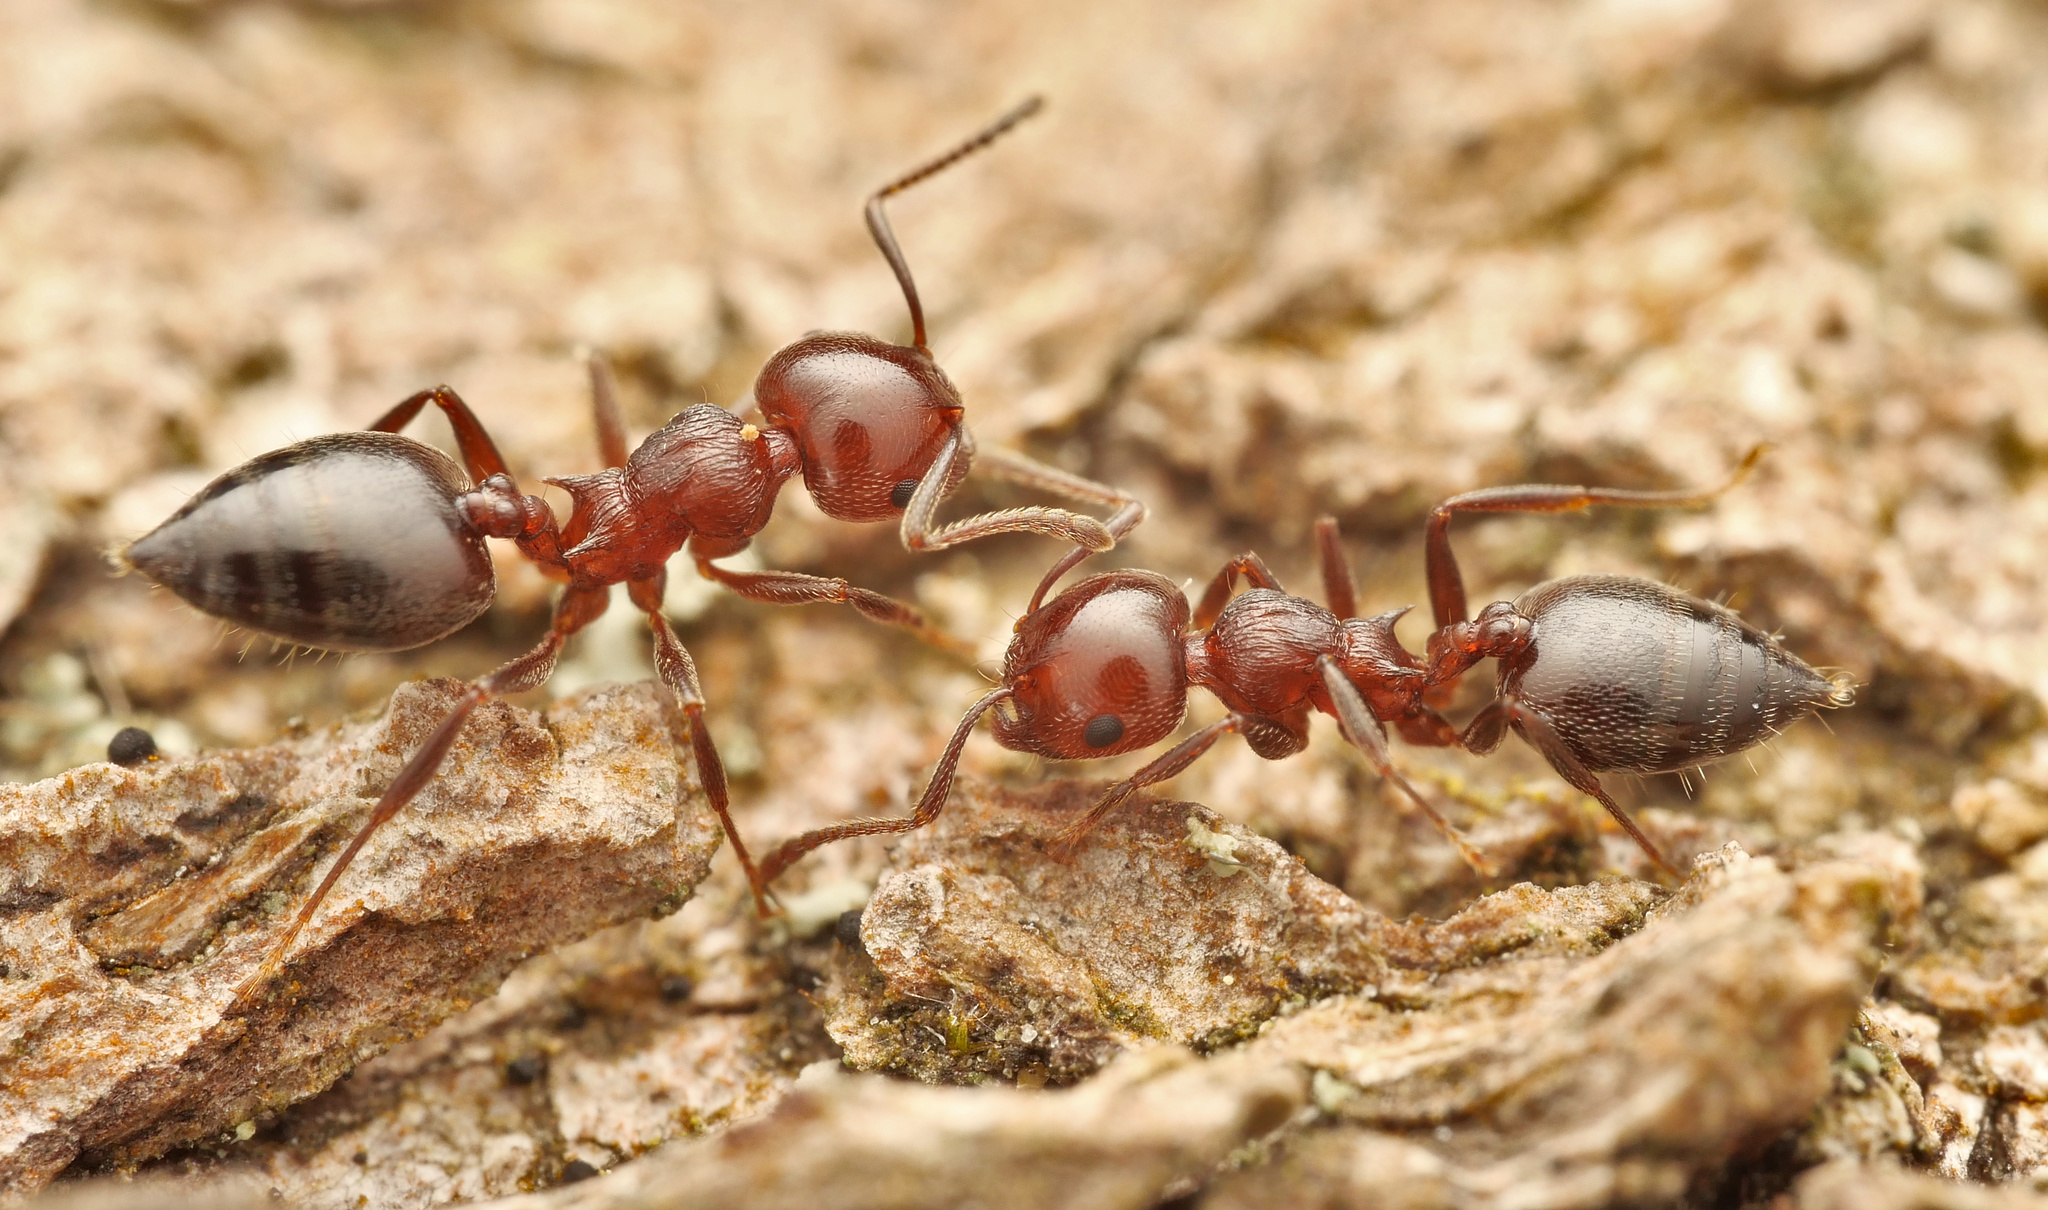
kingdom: Animalia
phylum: Arthropoda
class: Insecta
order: Hymenoptera
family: Formicidae
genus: Crematogaster
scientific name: Crematogaster schmidti
